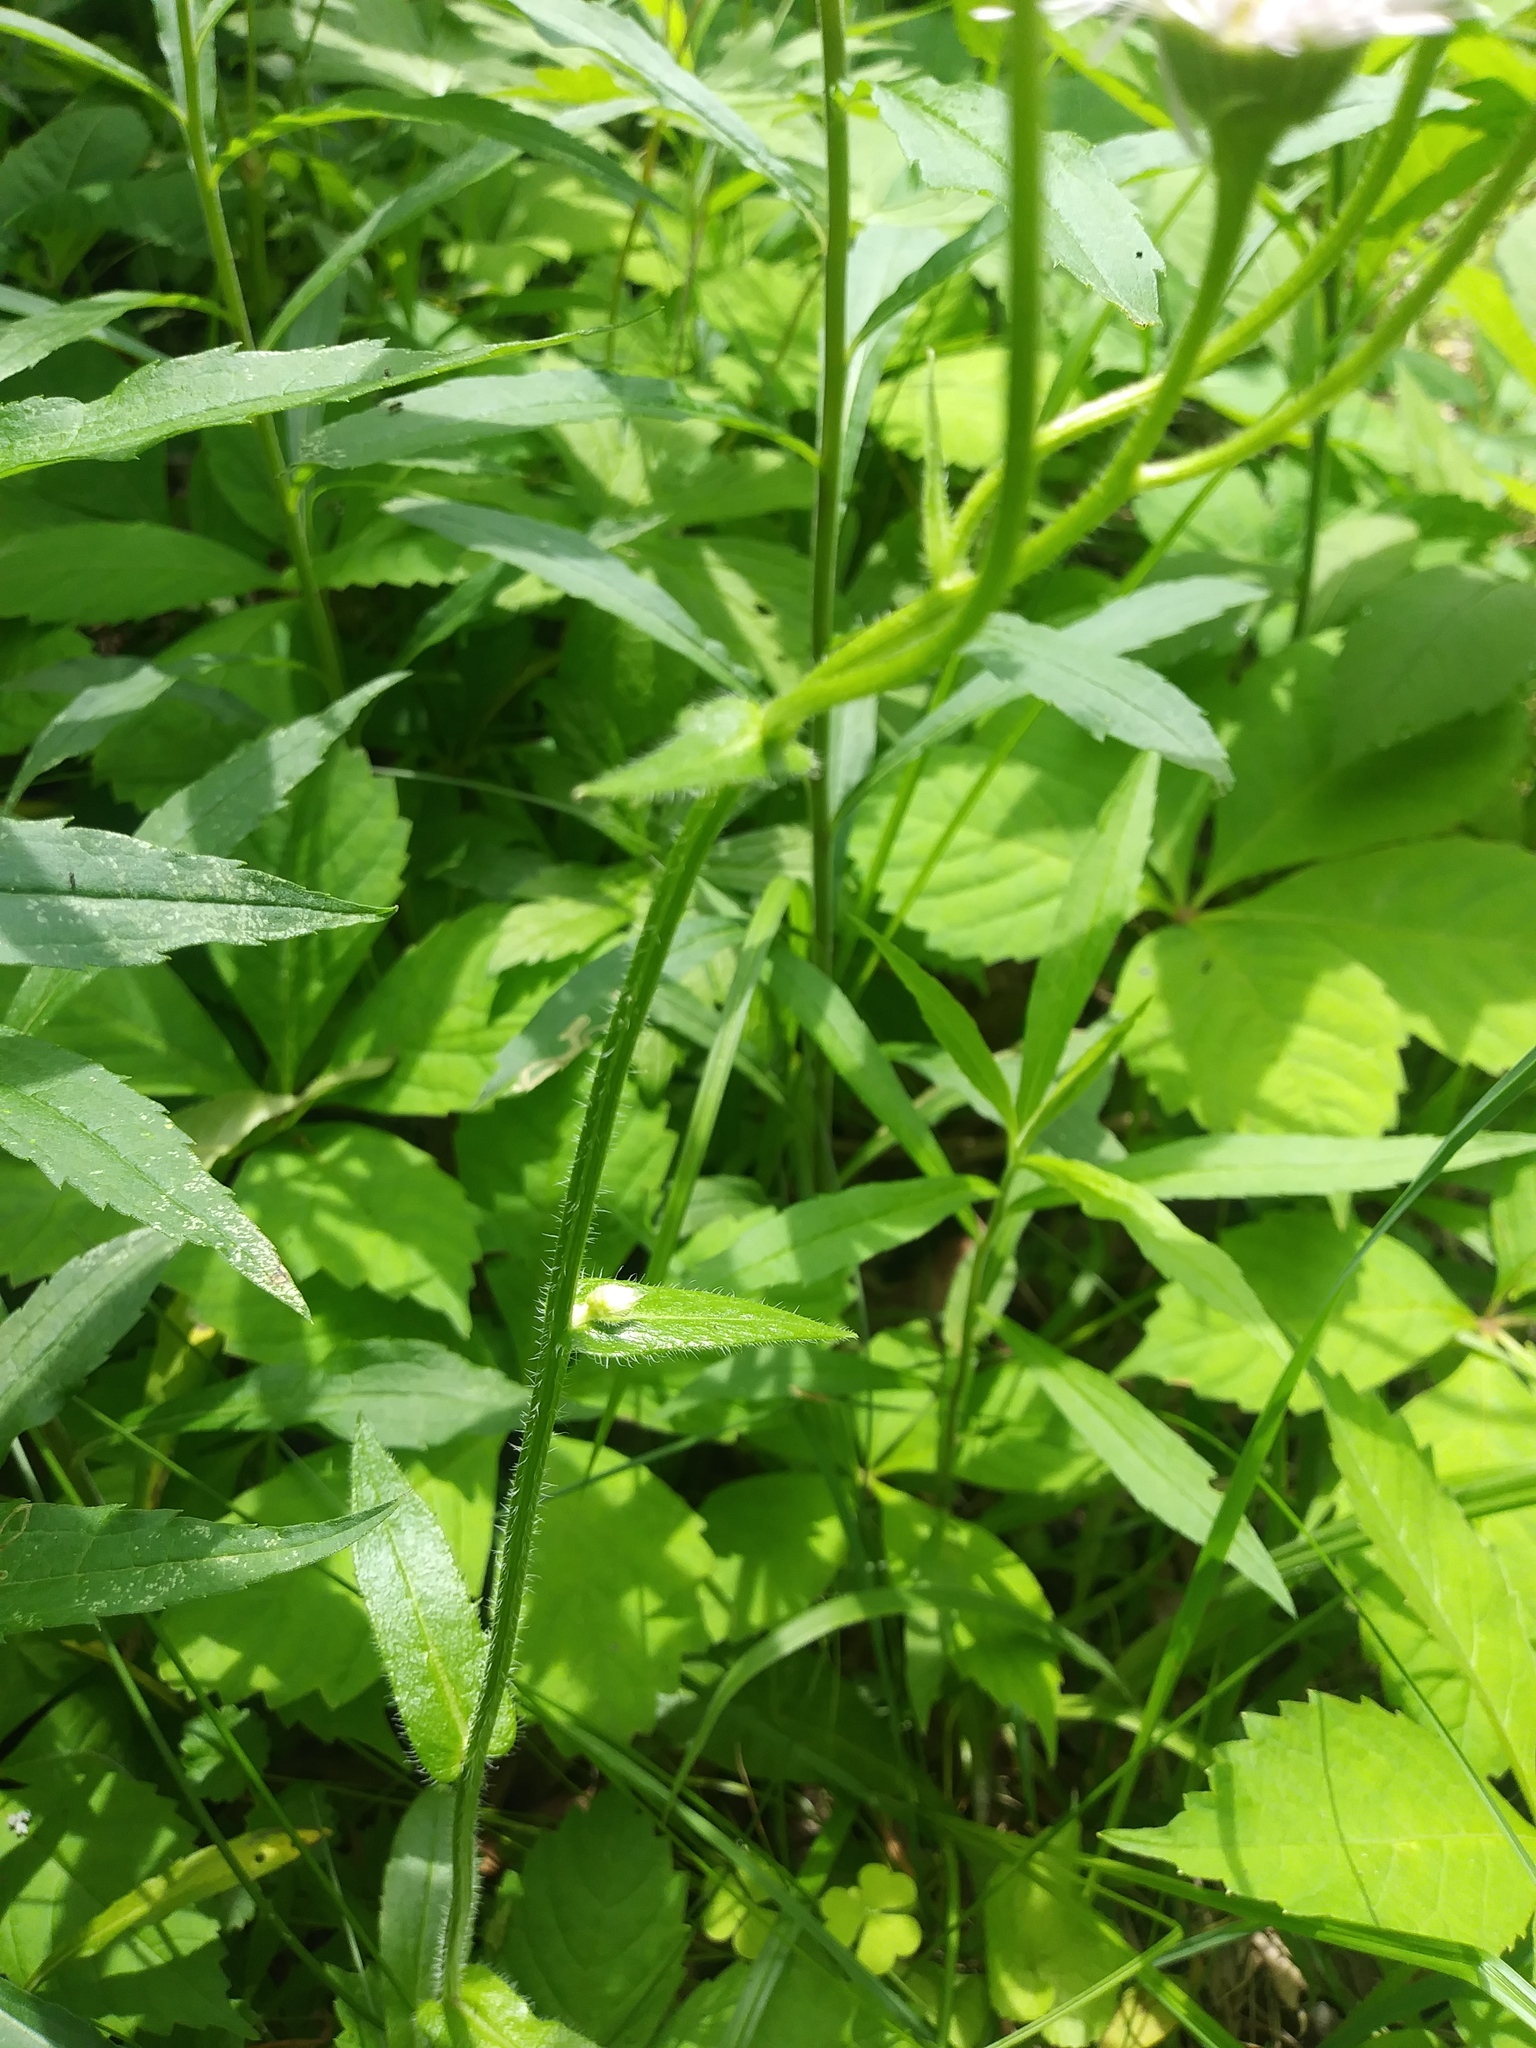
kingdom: Plantae
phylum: Tracheophyta
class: Magnoliopsida
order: Asterales
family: Asteraceae
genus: Erigeron
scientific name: Erigeron philadelphicus
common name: Robin's-plantain
